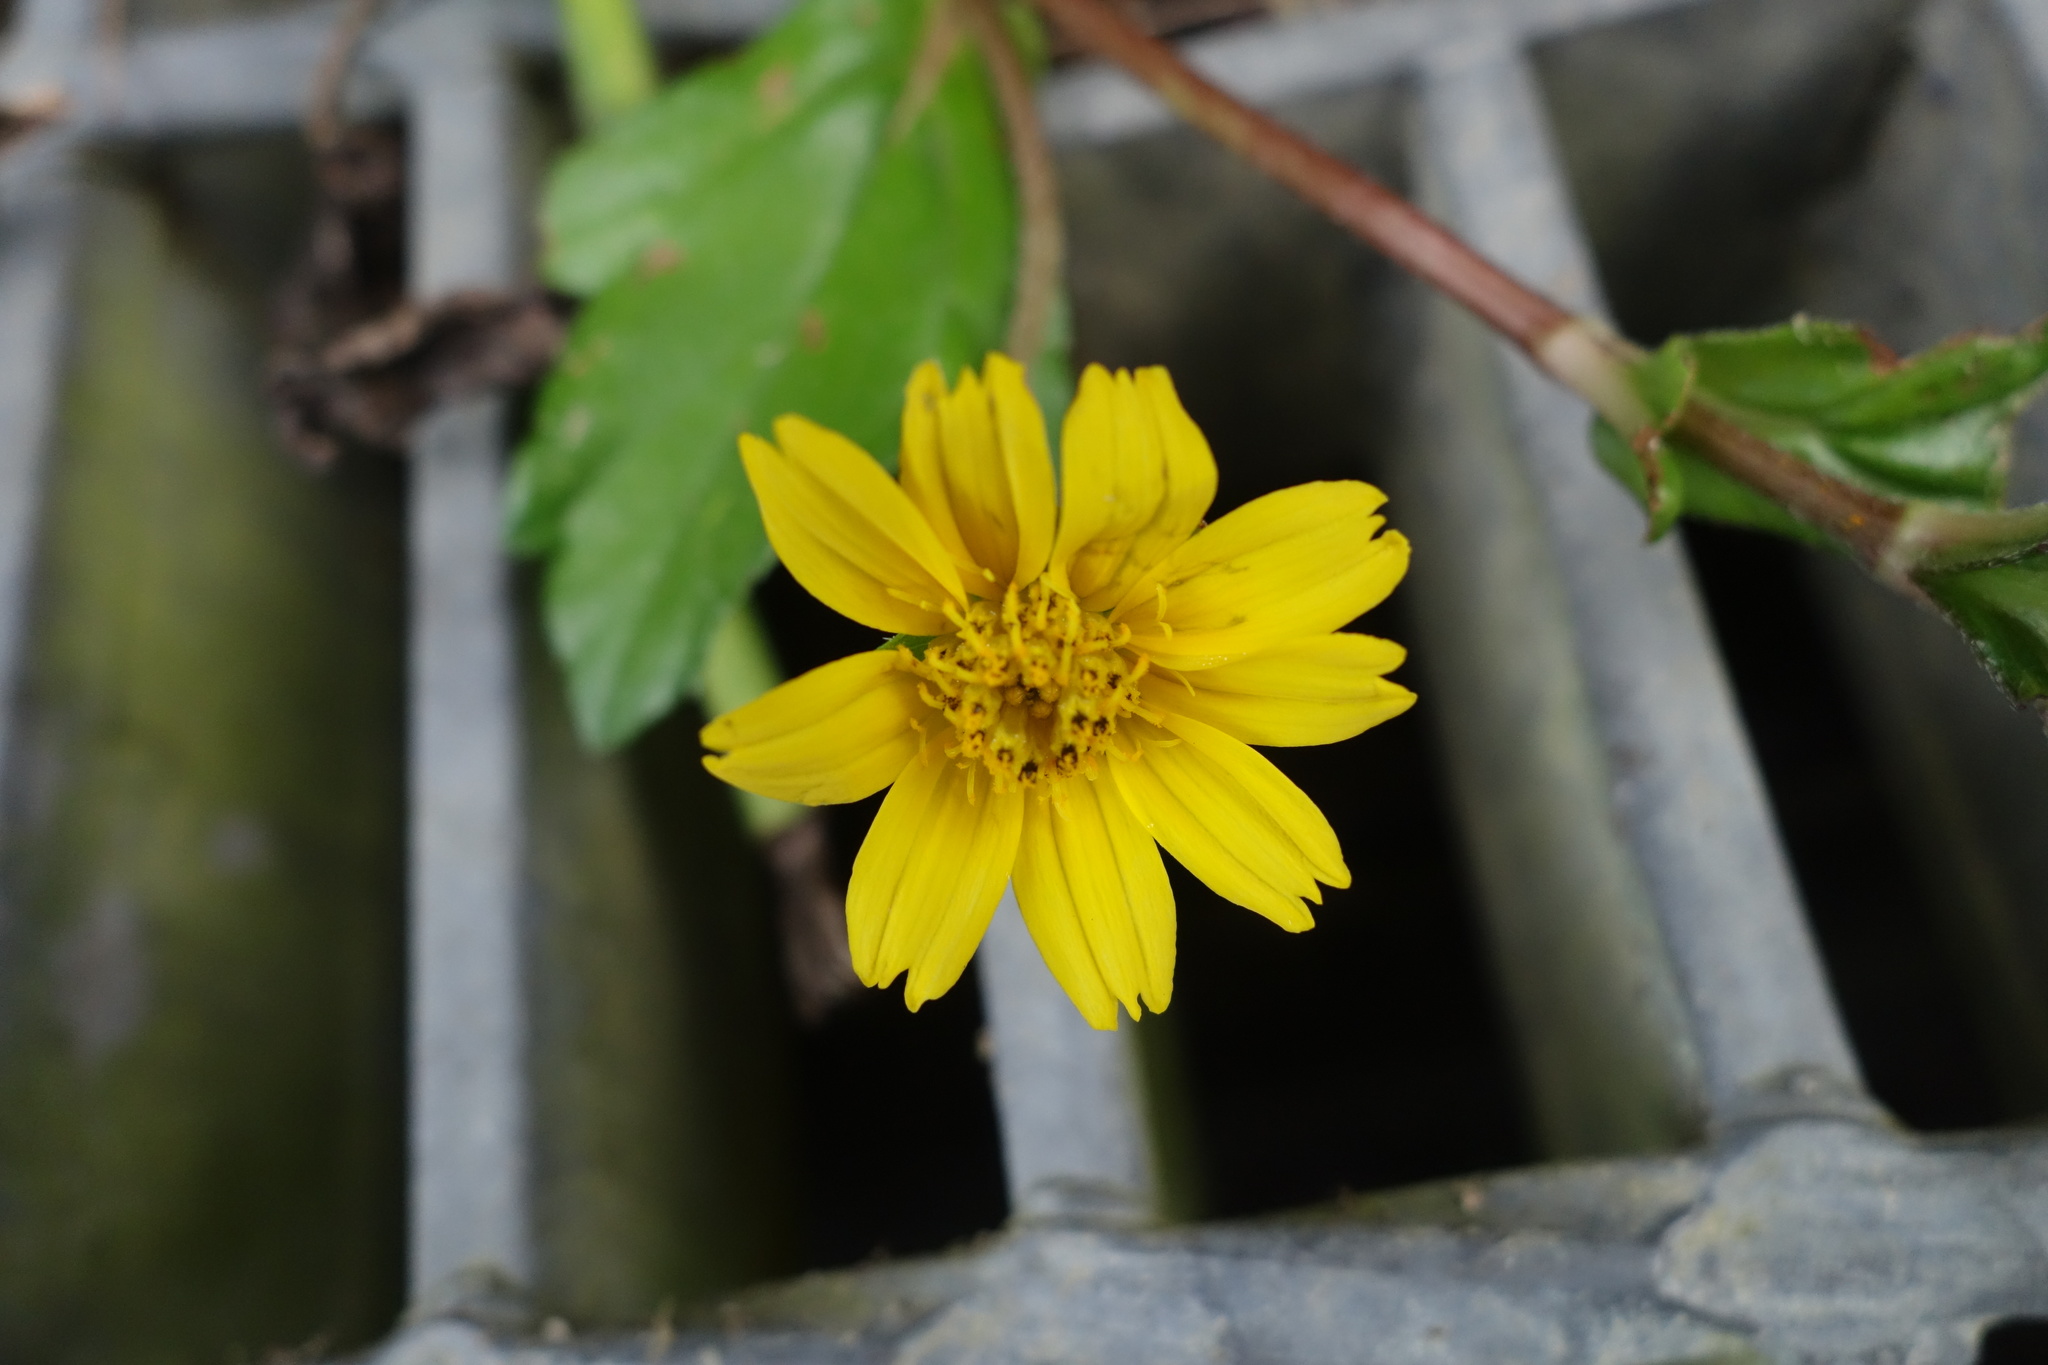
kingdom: Plantae
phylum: Tracheophyta
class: Magnoliopsida
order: Asterales
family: Asteraceae
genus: Sphagneticola
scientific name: Sphagneticola trilobata
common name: Bay biscayne creeping-oxeye
